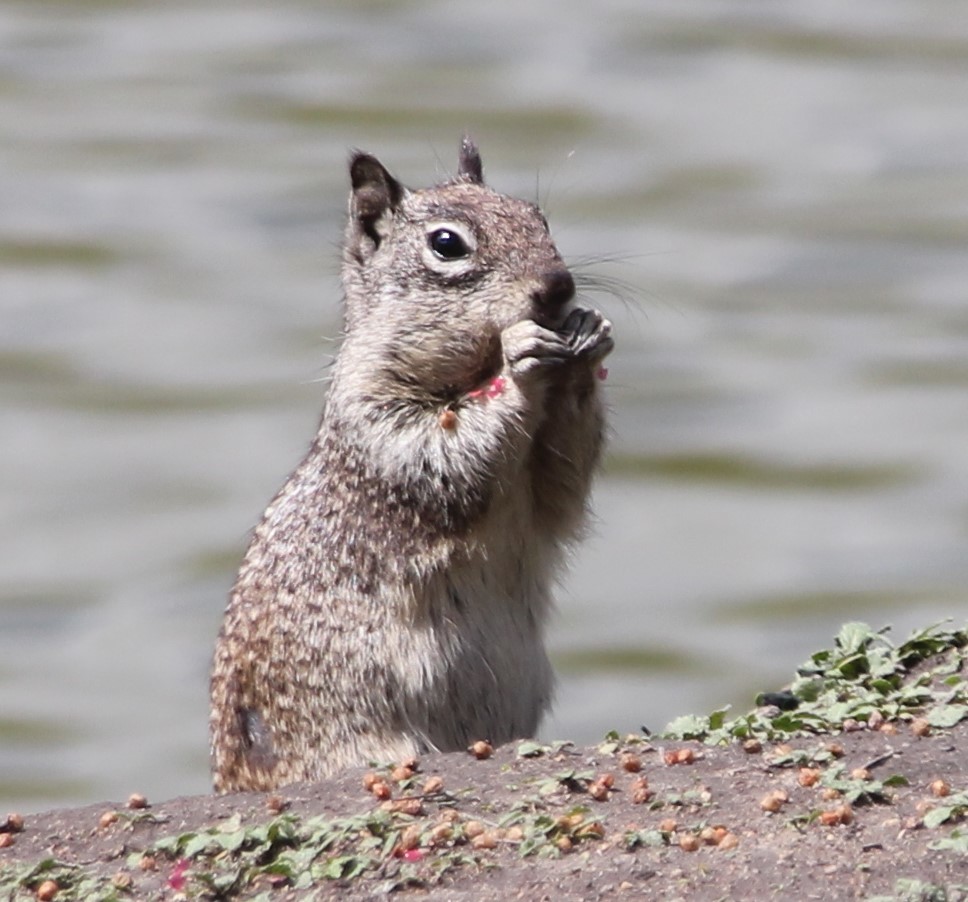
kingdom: Animalia
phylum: Chordata
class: Mammalia
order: Rodentia
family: Sciuridae
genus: Otospermophilus
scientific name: Otospermophilus beecheyi
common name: California ground squirrel
